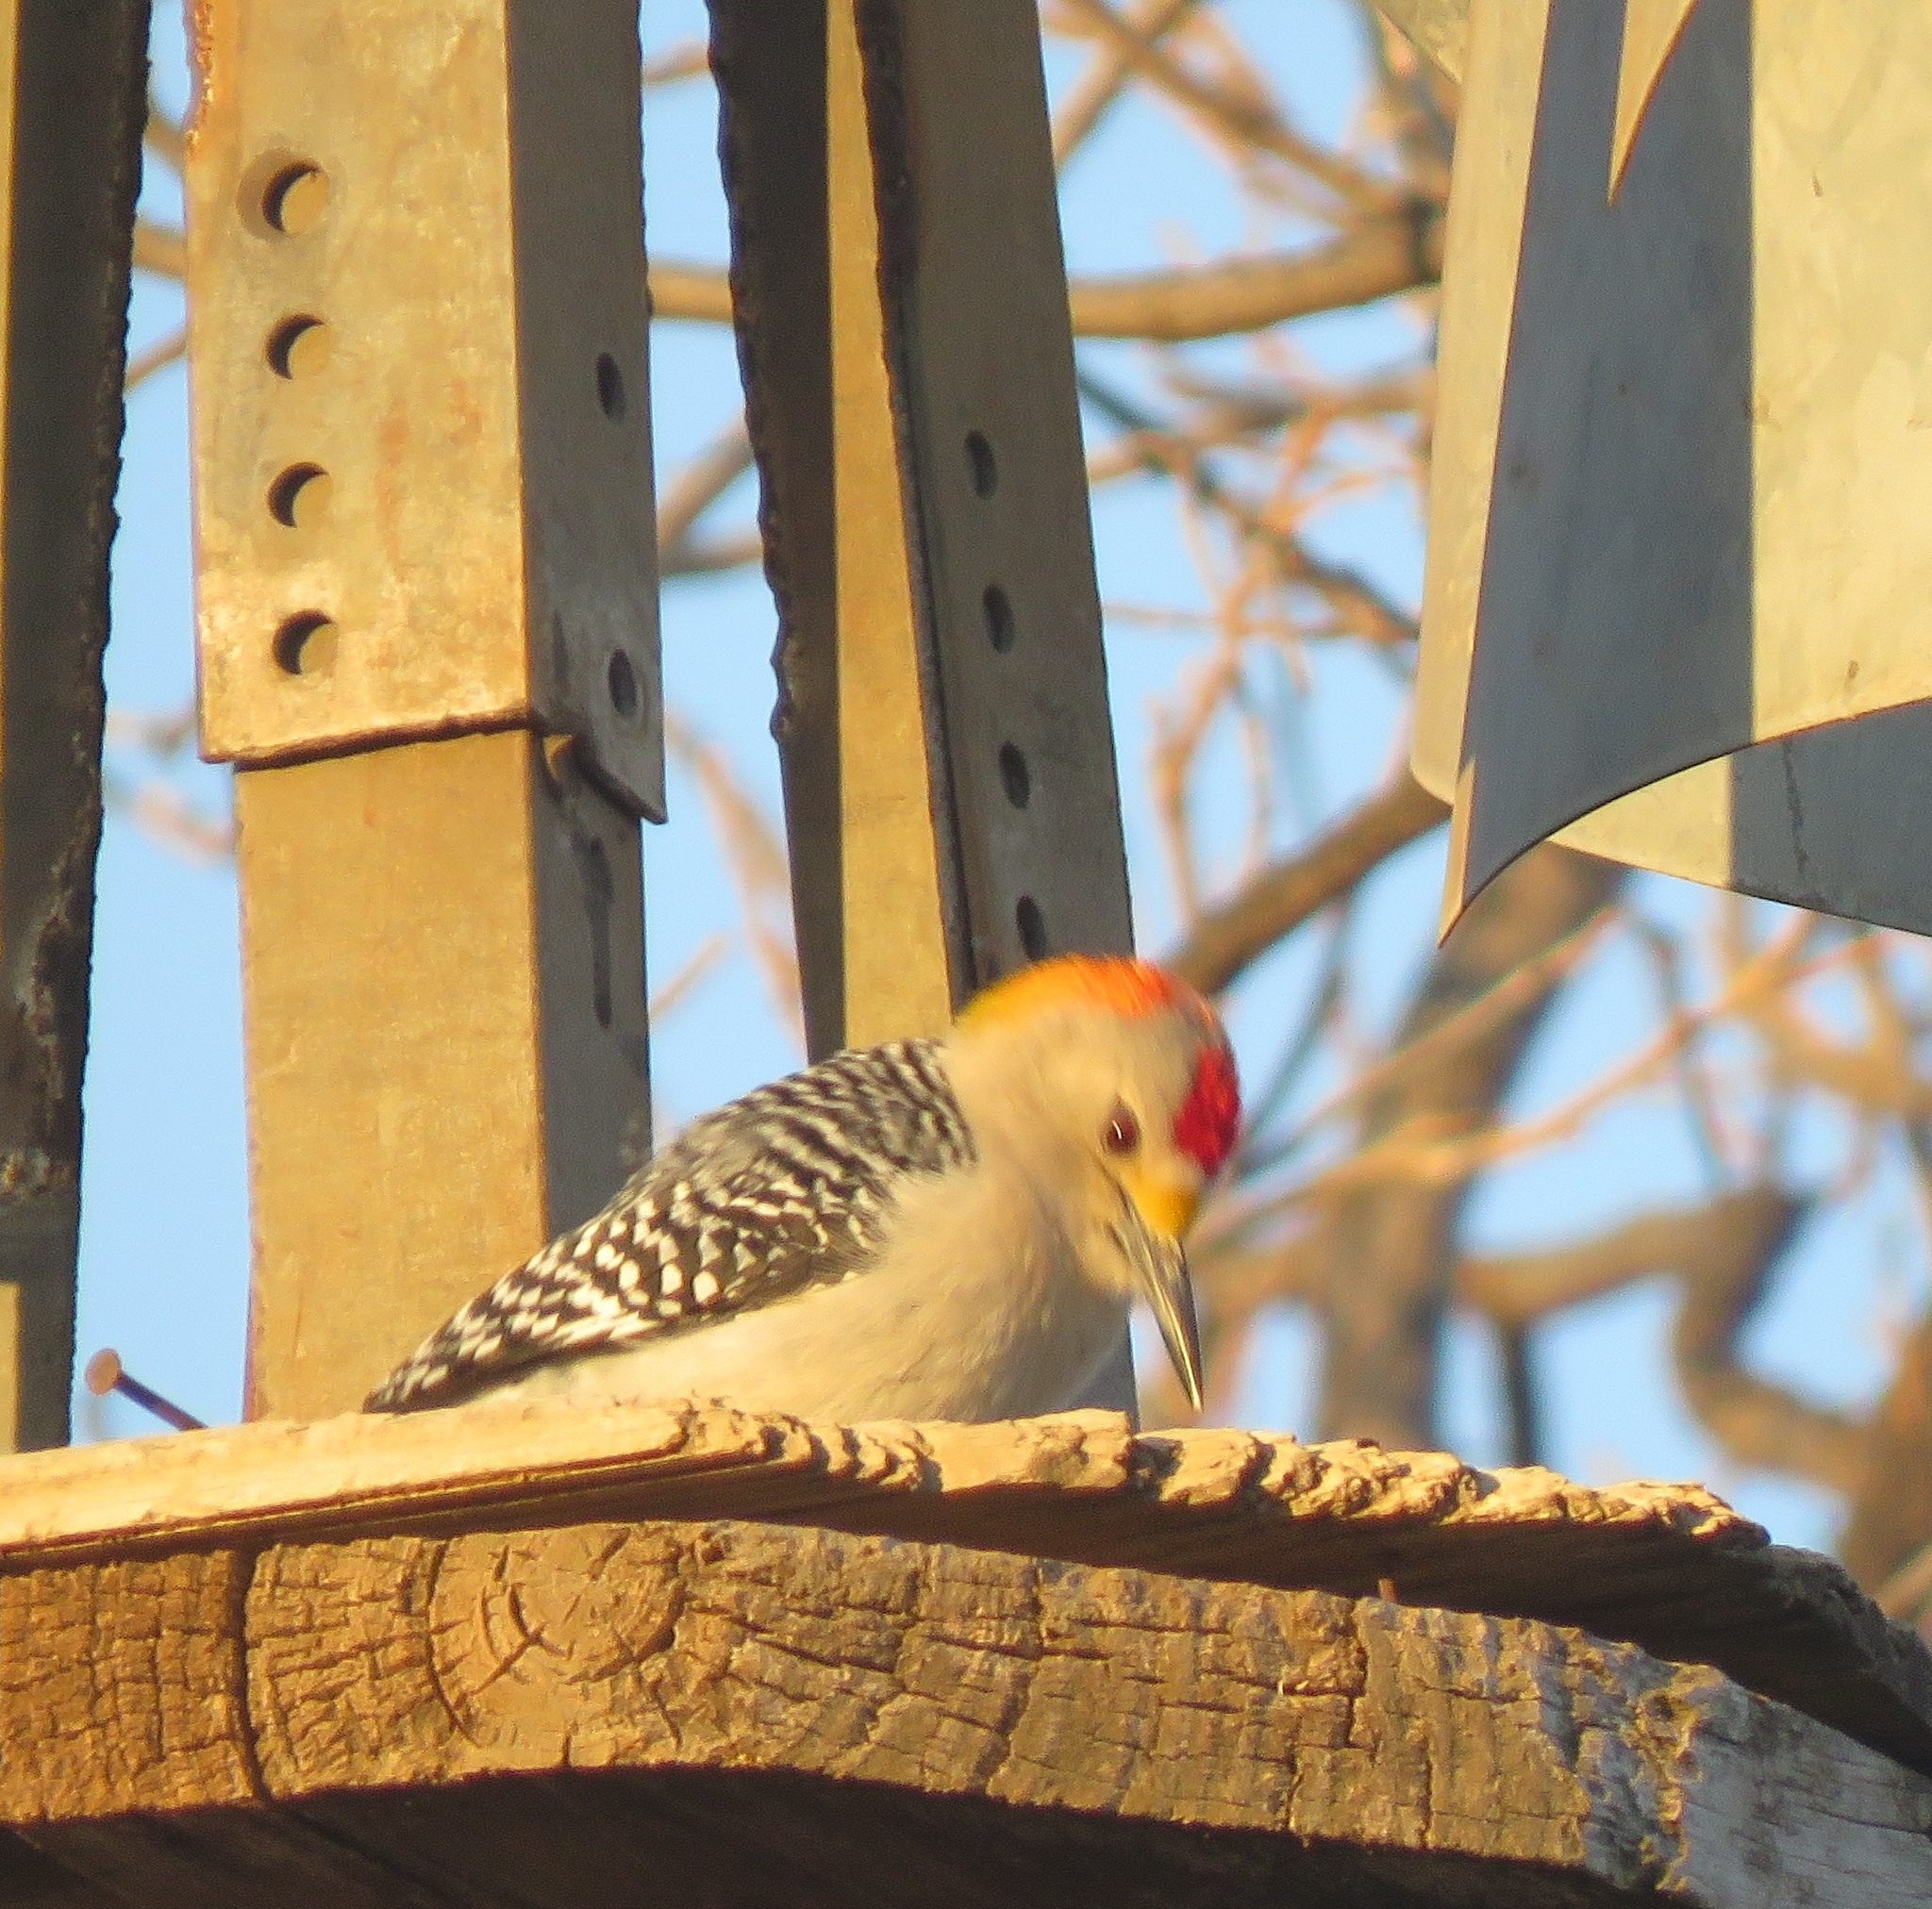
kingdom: Animalia
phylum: Chordata
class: Aves
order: Piciformes
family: Picidae
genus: Melanerpes
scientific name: Melanerpes aurifrons
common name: Golden-fronted woodpecker
